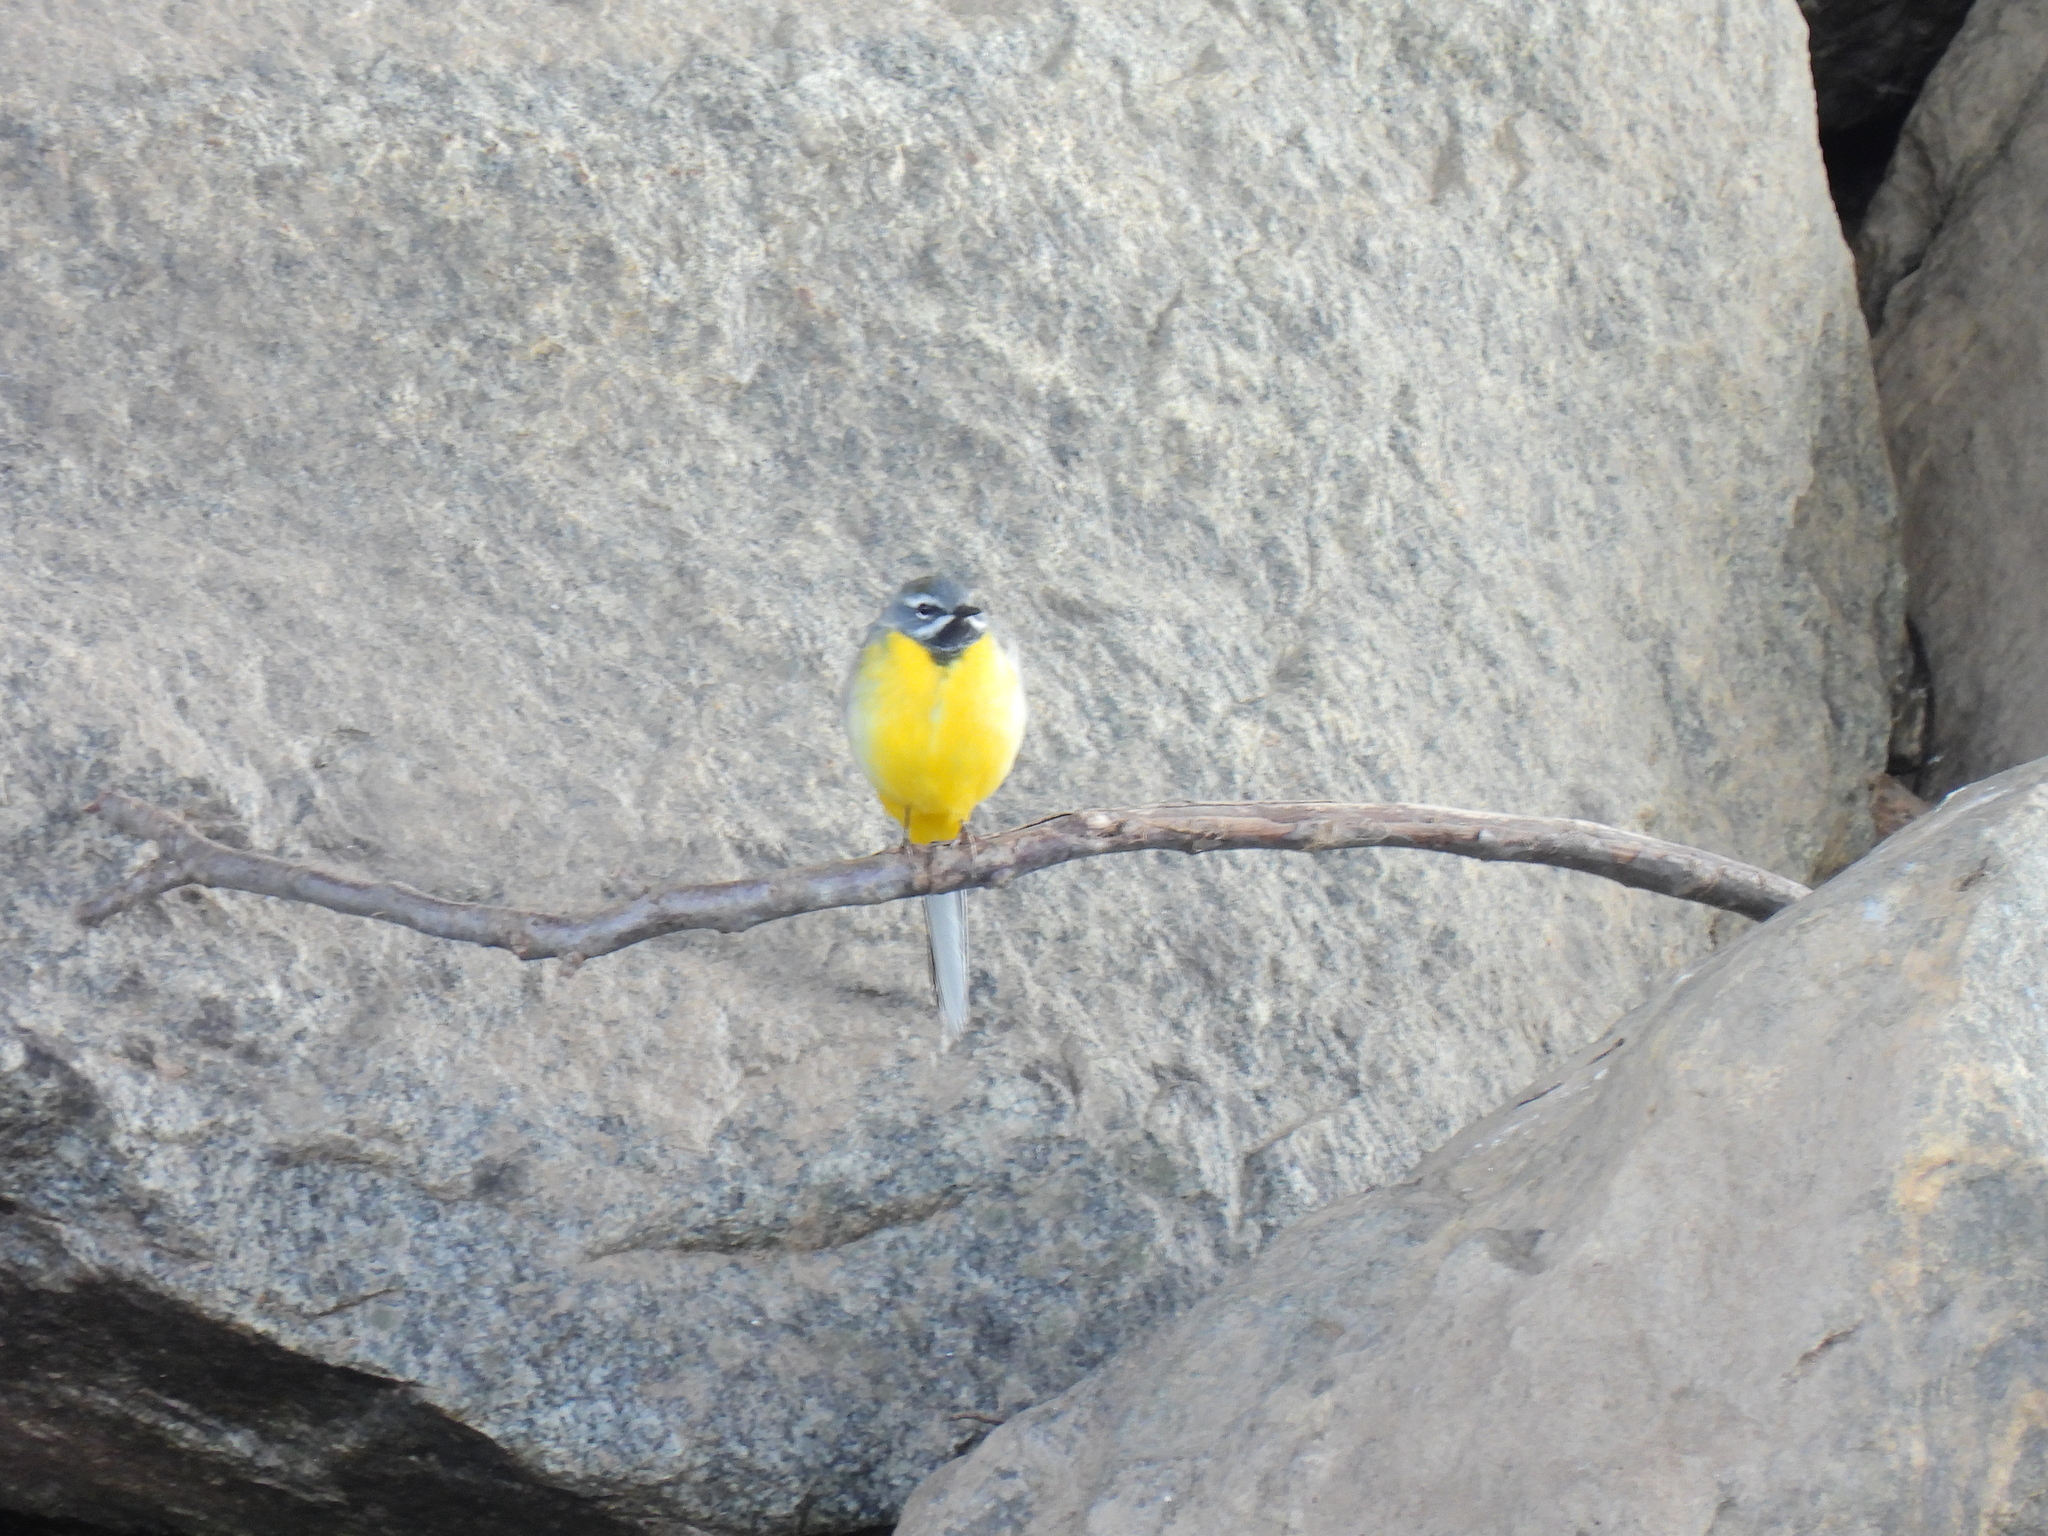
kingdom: Animalia
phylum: Chordata
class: Aves
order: Passeriformes
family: Motacillidae
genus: Motacilla
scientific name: Motacilla cinerea
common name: Grey wagtail
